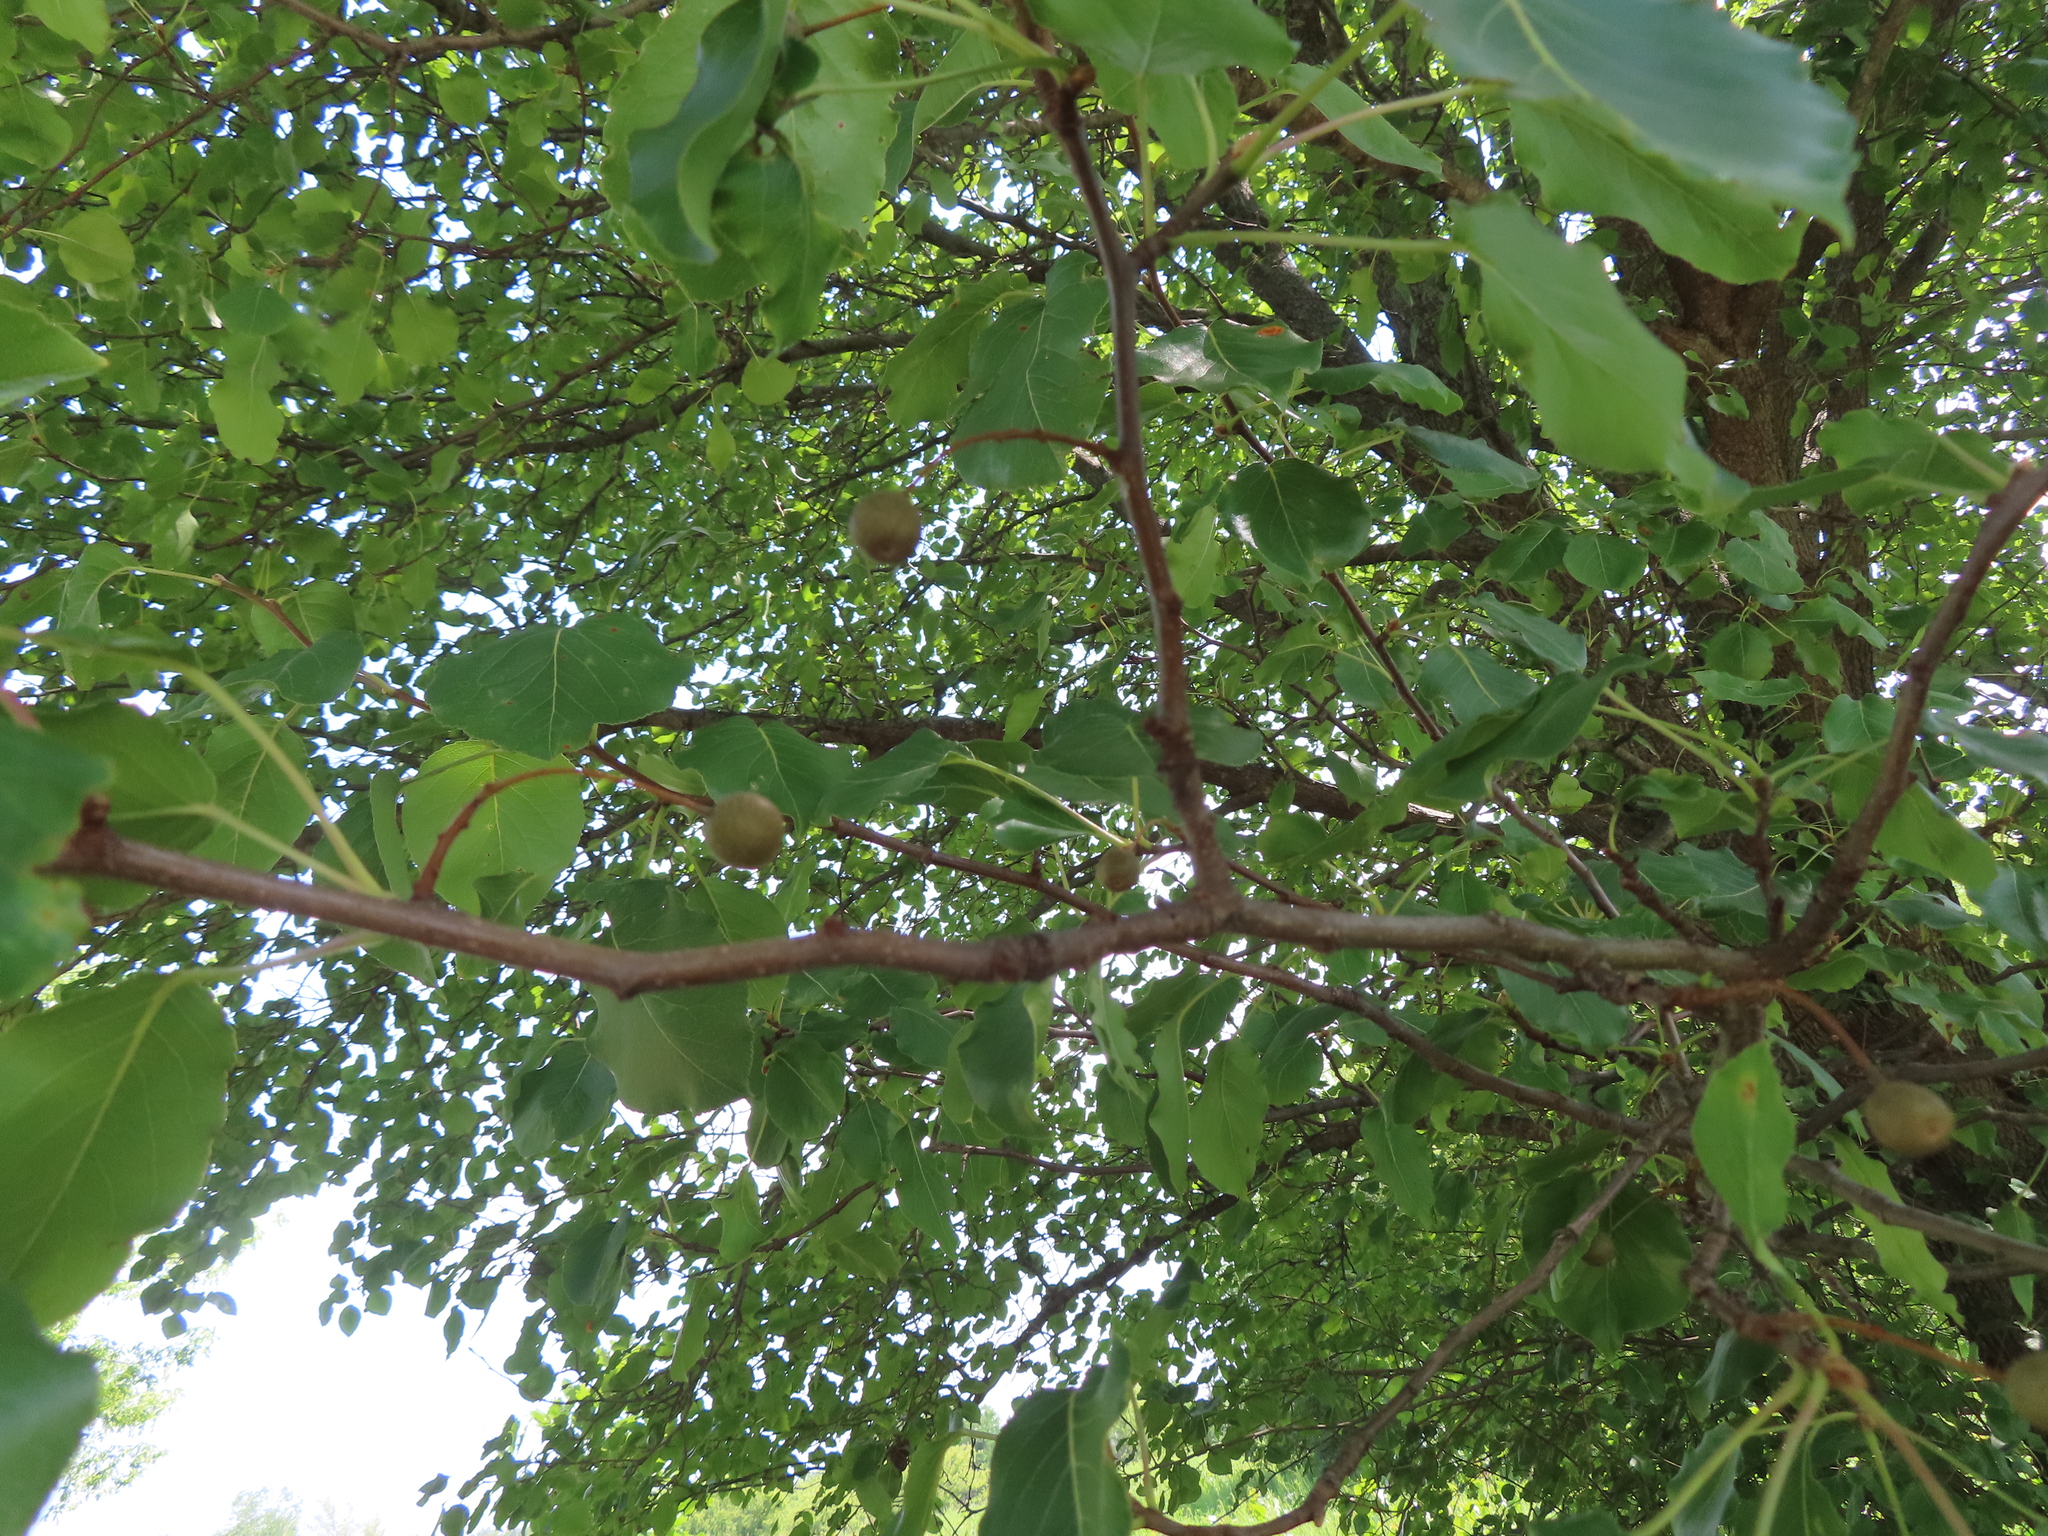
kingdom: Plantae
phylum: Tracheophyta
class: Magnoliopsida
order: Rosales
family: Rosaceae
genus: Pyrus
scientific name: Pyrus calleryana
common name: Callery pear
